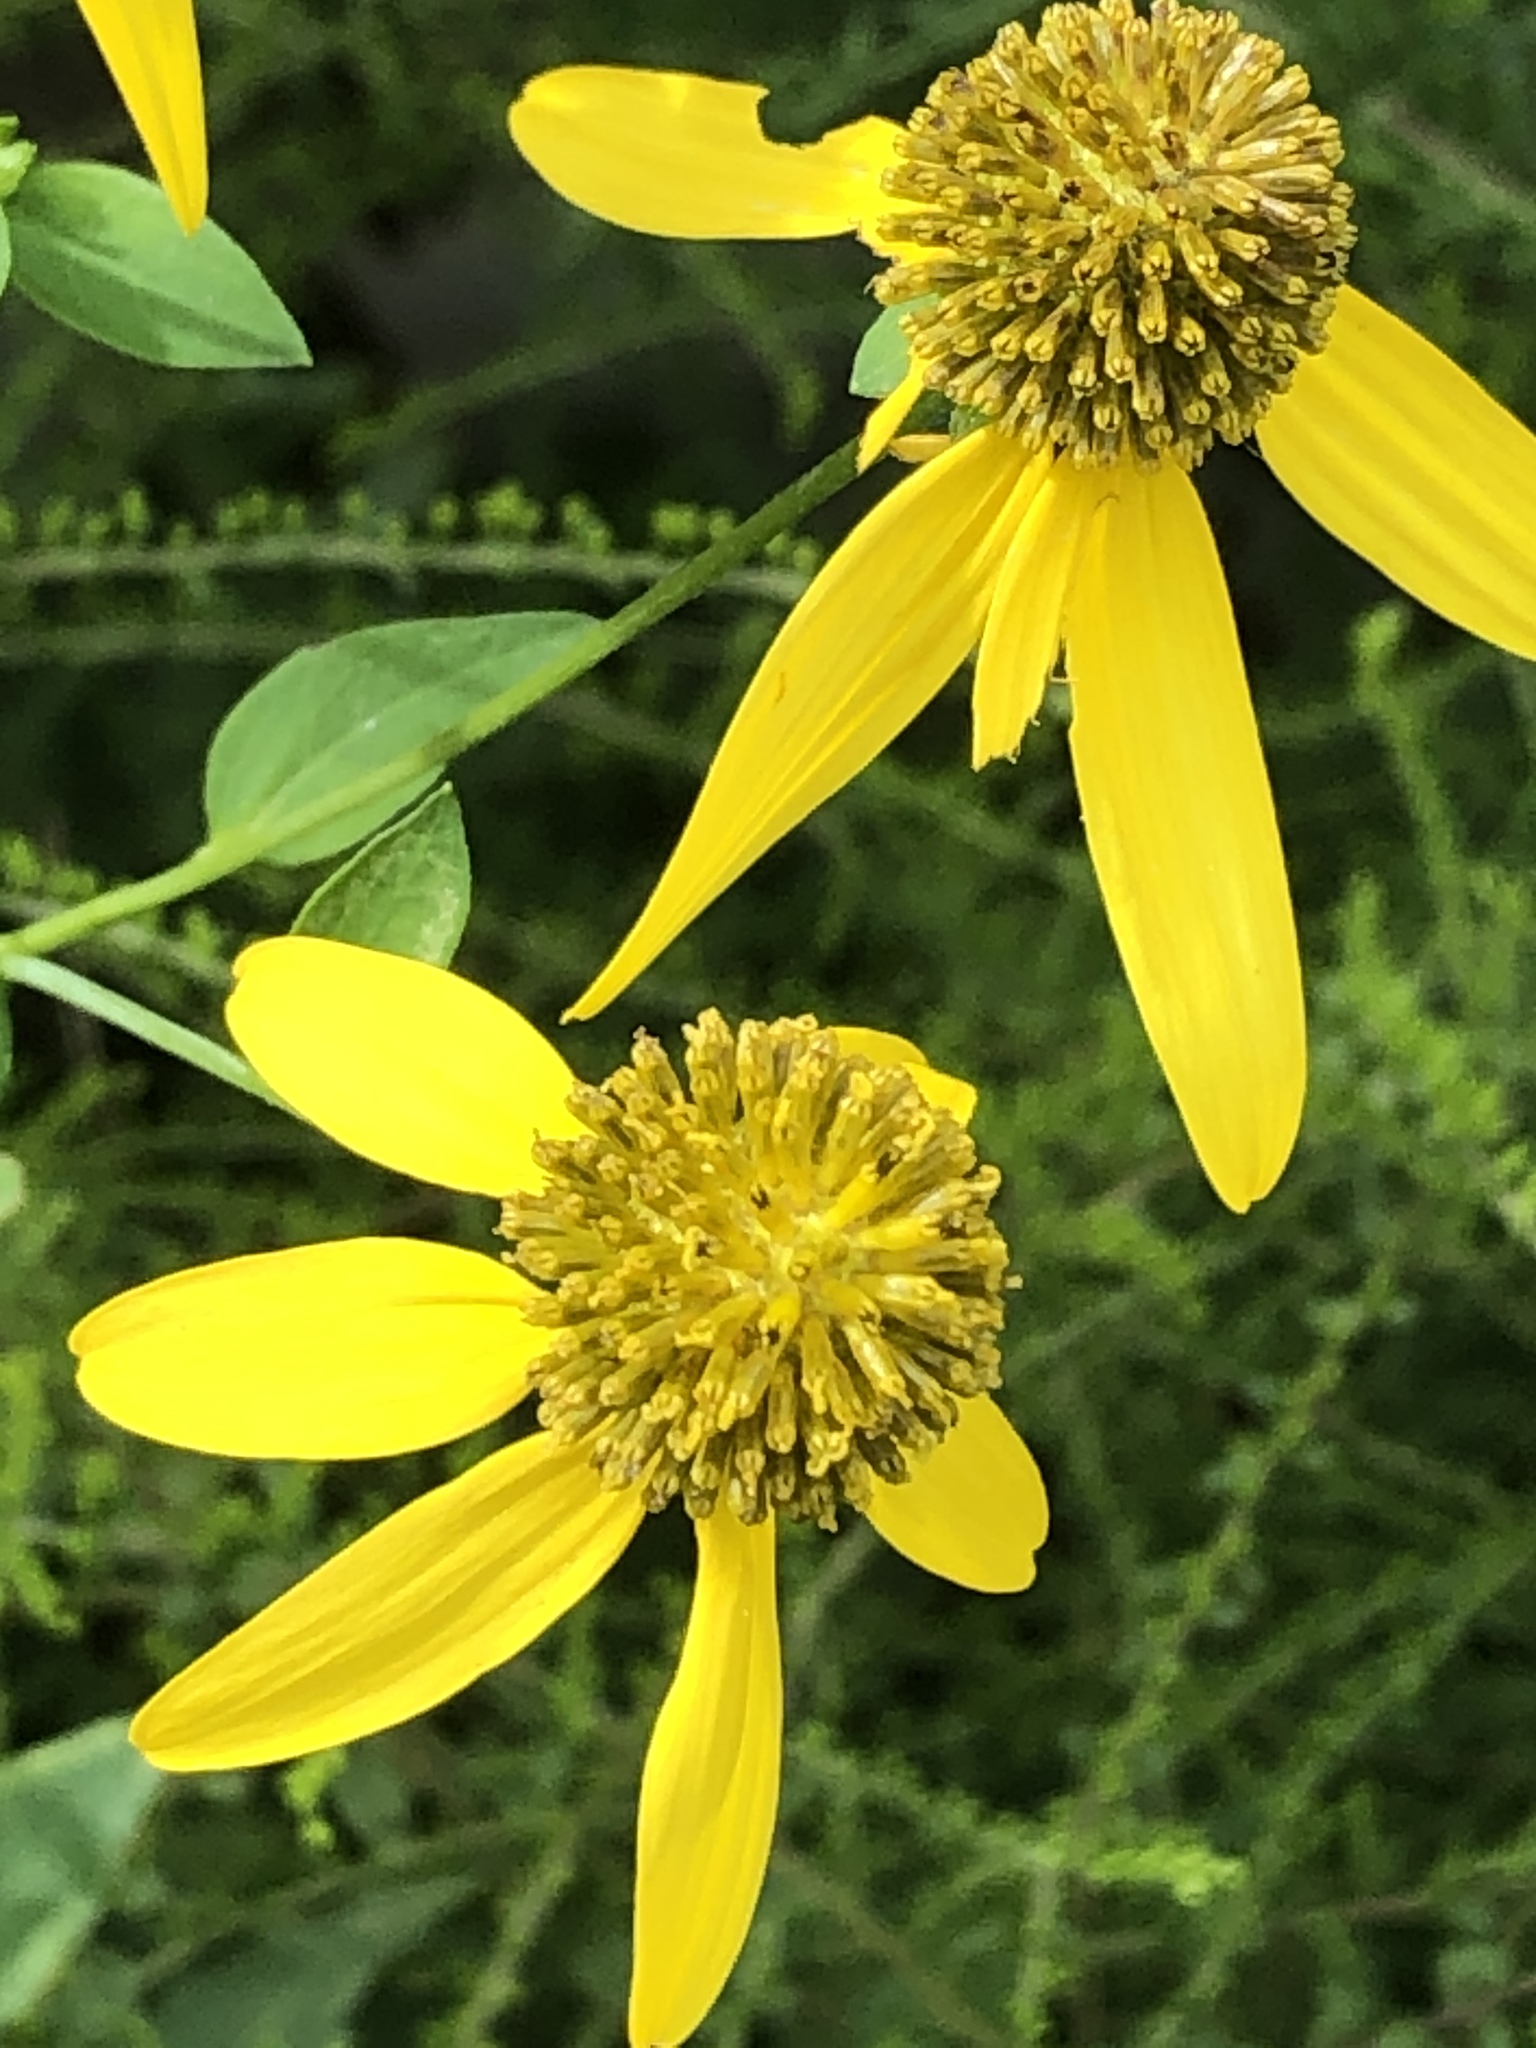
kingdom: Plantae
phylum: Tracheophyta
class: Magnoliopsida
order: Asterales
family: Asteraceae
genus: Rudbeckia
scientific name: Rudbeckia laciniata
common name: Coneflower
